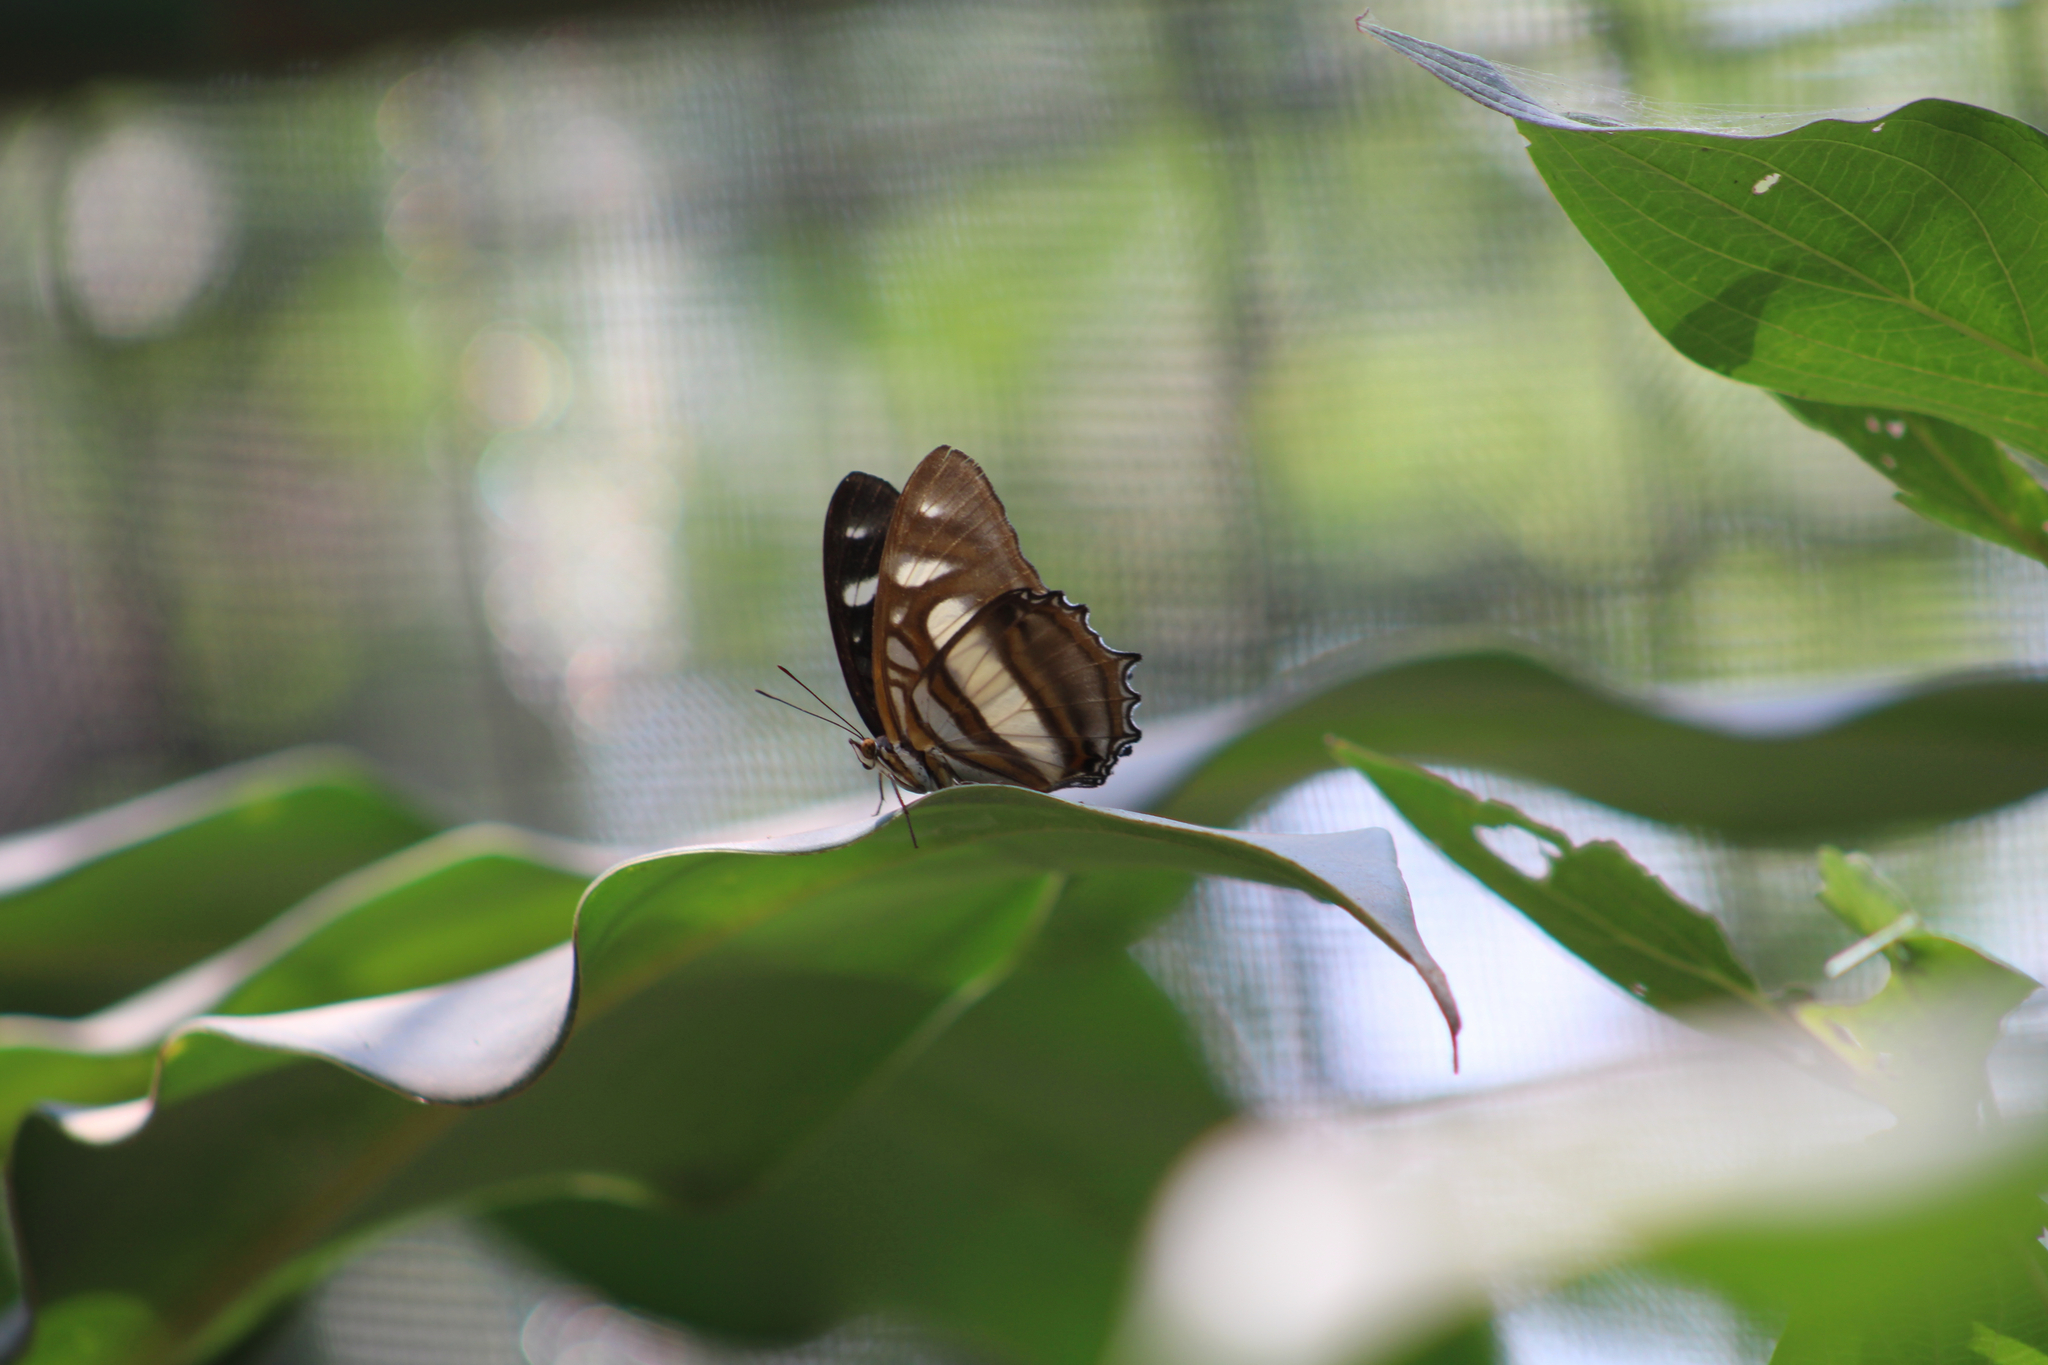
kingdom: Animalia
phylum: Arthropoda
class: Insecta
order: Lepidoptera
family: Nymphalidae
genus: Metamorpha
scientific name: Metamorpha elissa
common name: Elissa page
